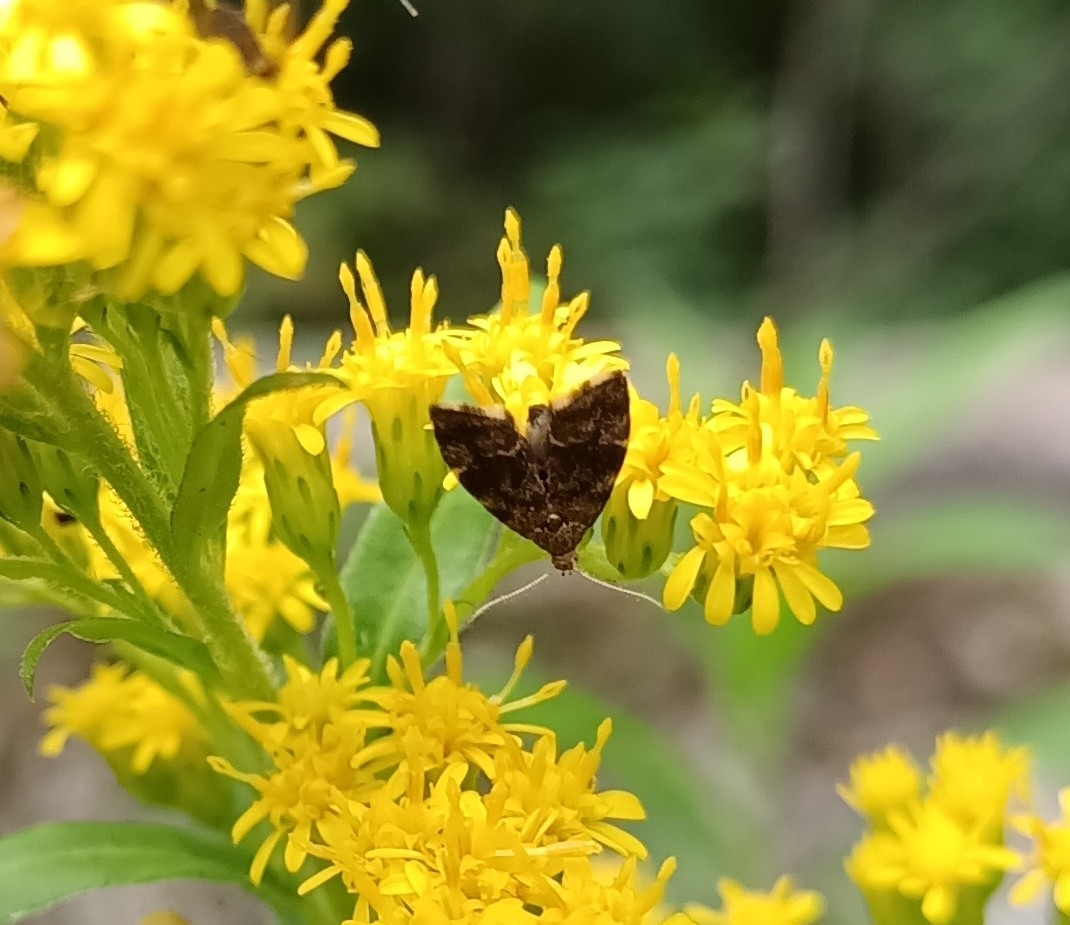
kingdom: Animalia
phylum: Arthropoda
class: Insecta
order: Lepidoptera
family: Choreutidae
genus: Anthophila
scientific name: Anthophila fabriciana
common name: Nettle-tap
